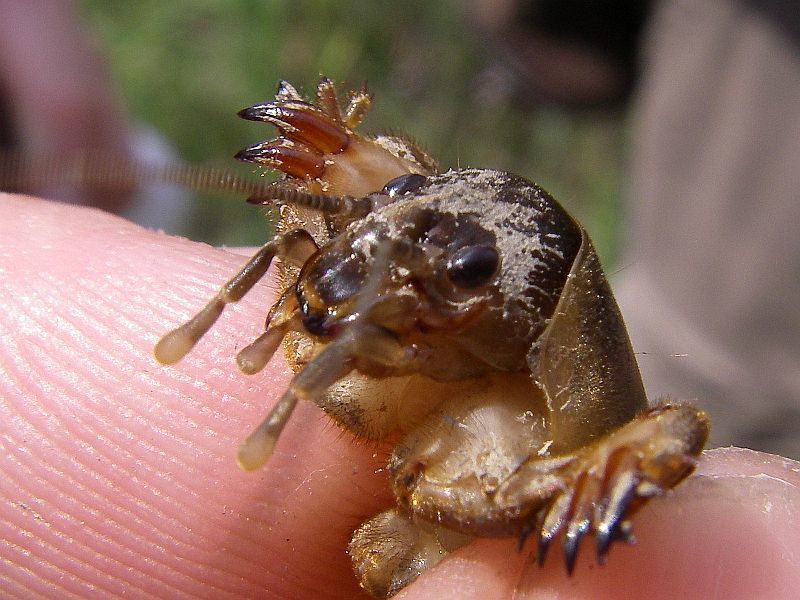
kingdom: Animalia
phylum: Arthropoda
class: Insecta
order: Orthoptera
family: Gryllotalpidae
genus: Gryllotalpa
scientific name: Gryllotalpa gryllotalpa
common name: European mole cricket
